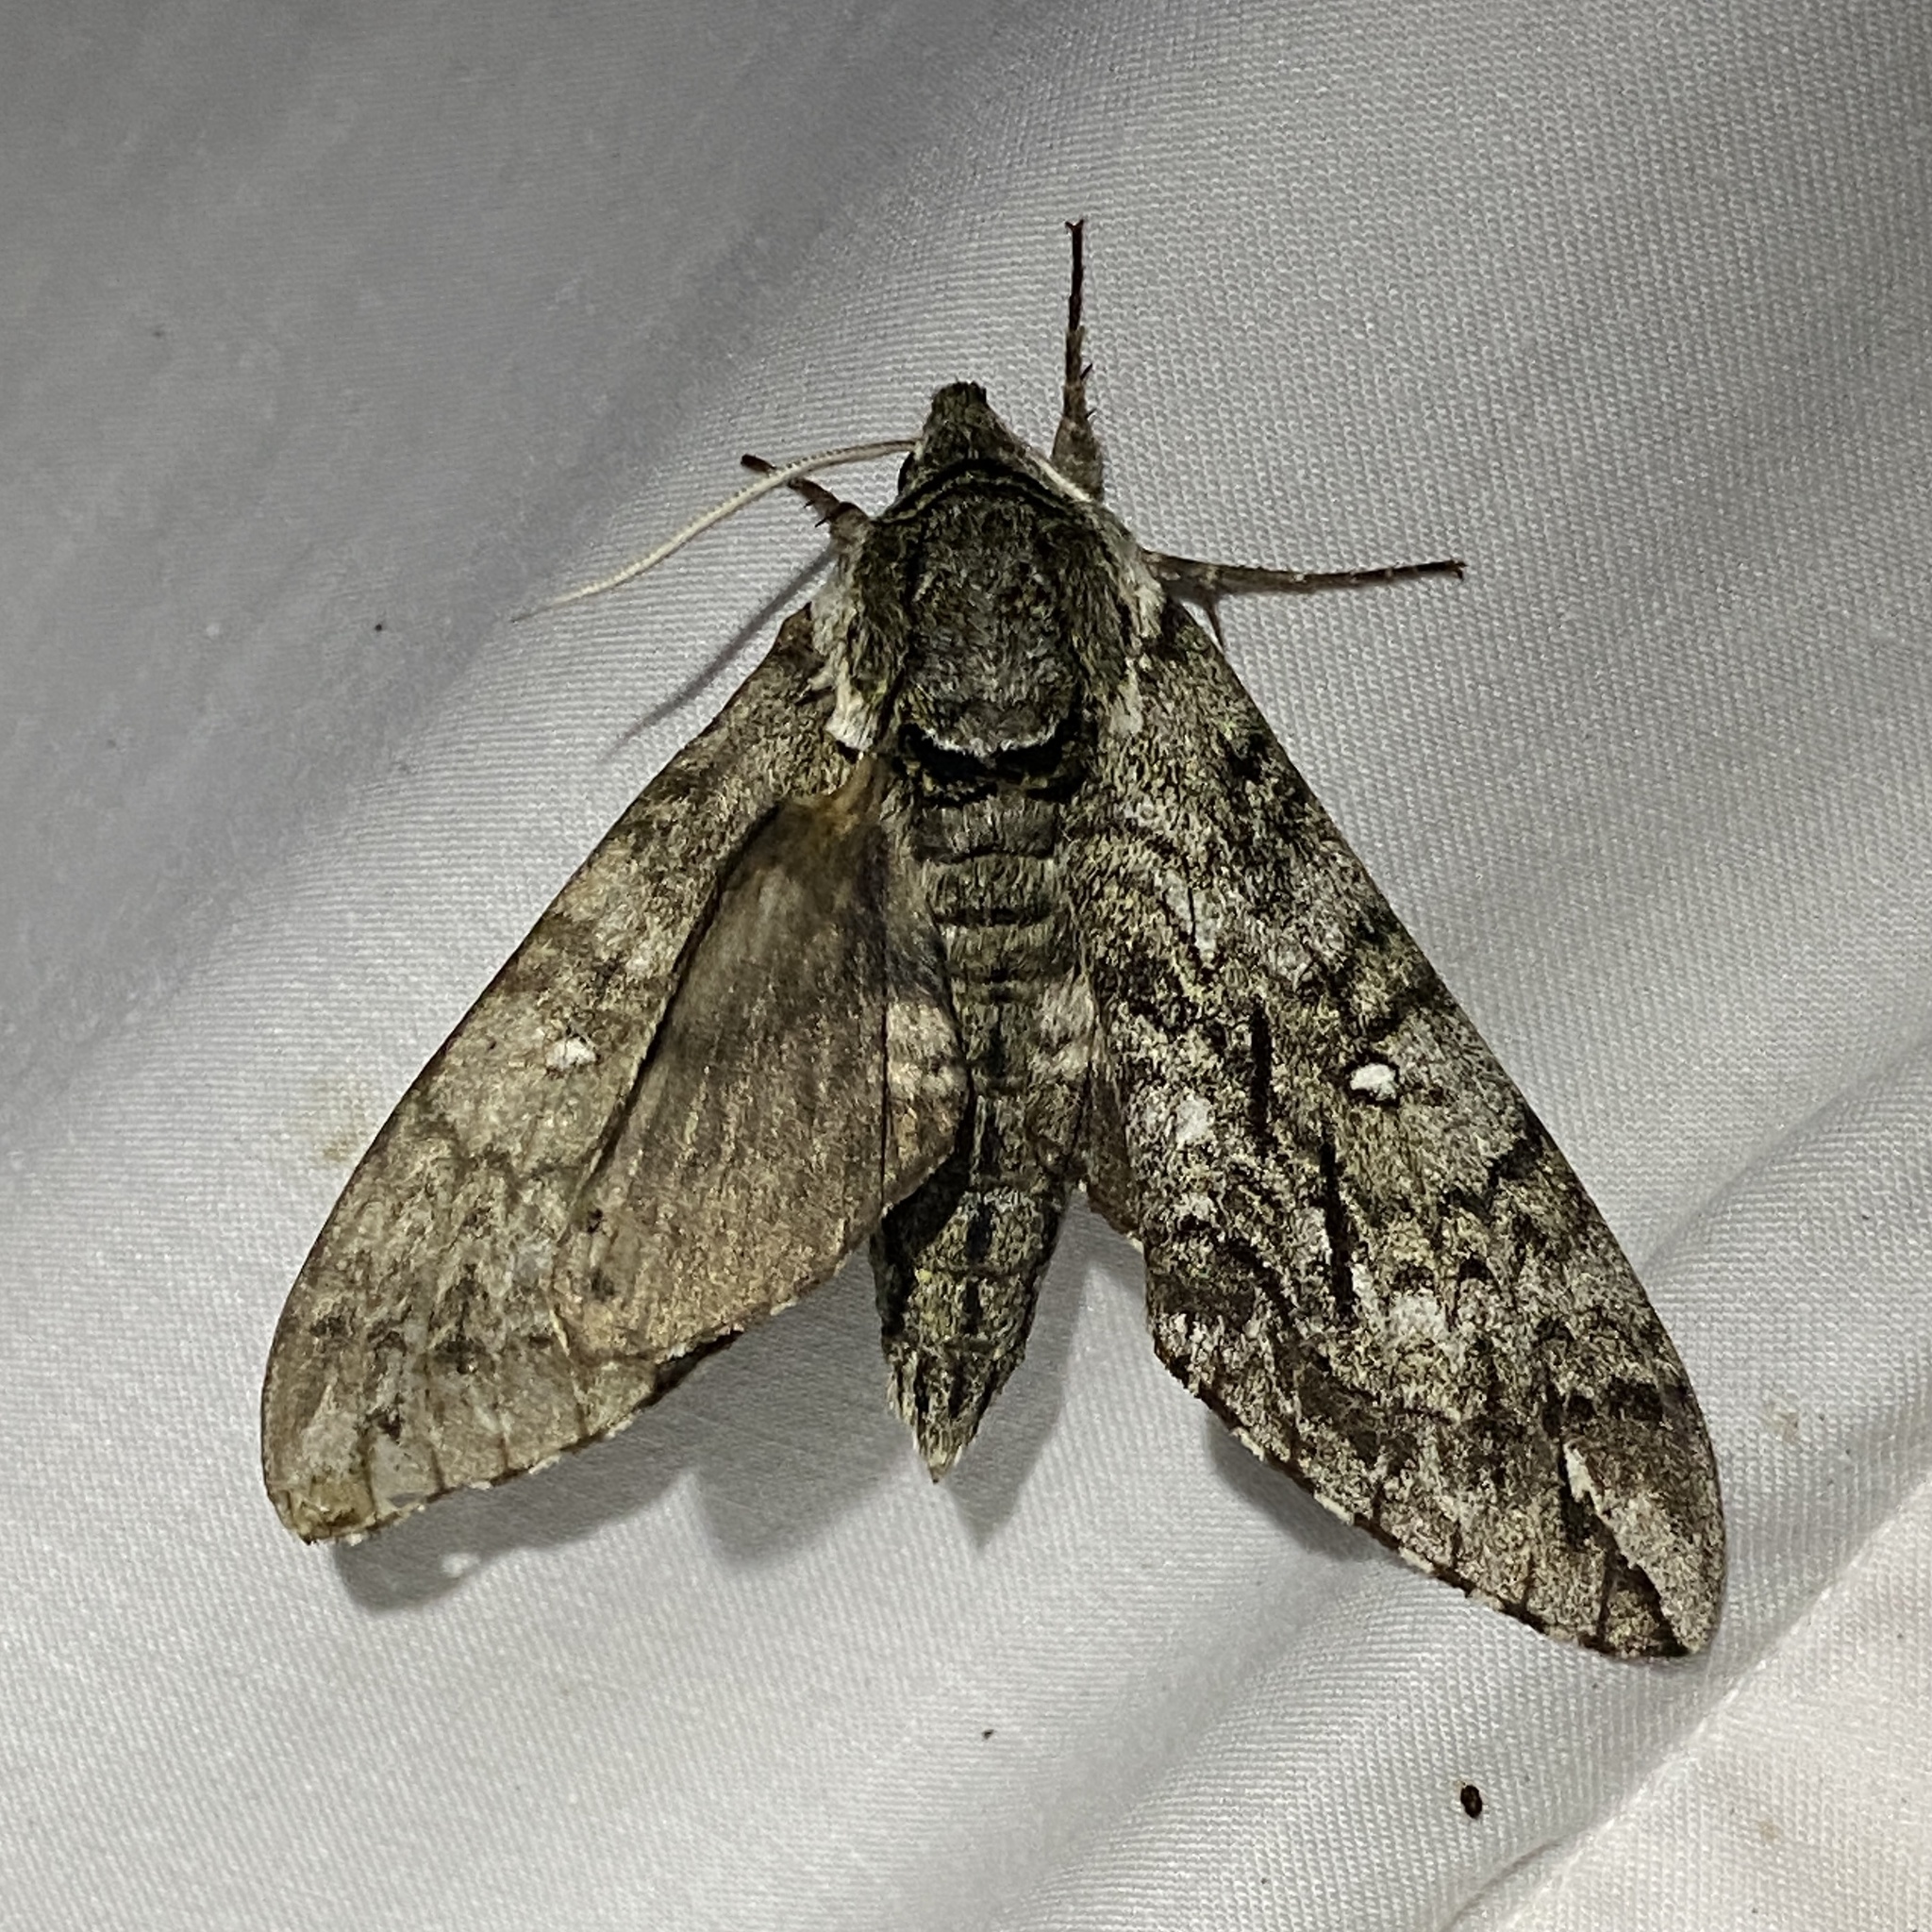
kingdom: Animalia
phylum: Arthropoda
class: Insecta
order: Lepidoptera
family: Sphingidae
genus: Ceratomia
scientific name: Ceratomia undulosa
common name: Waved sphinx
